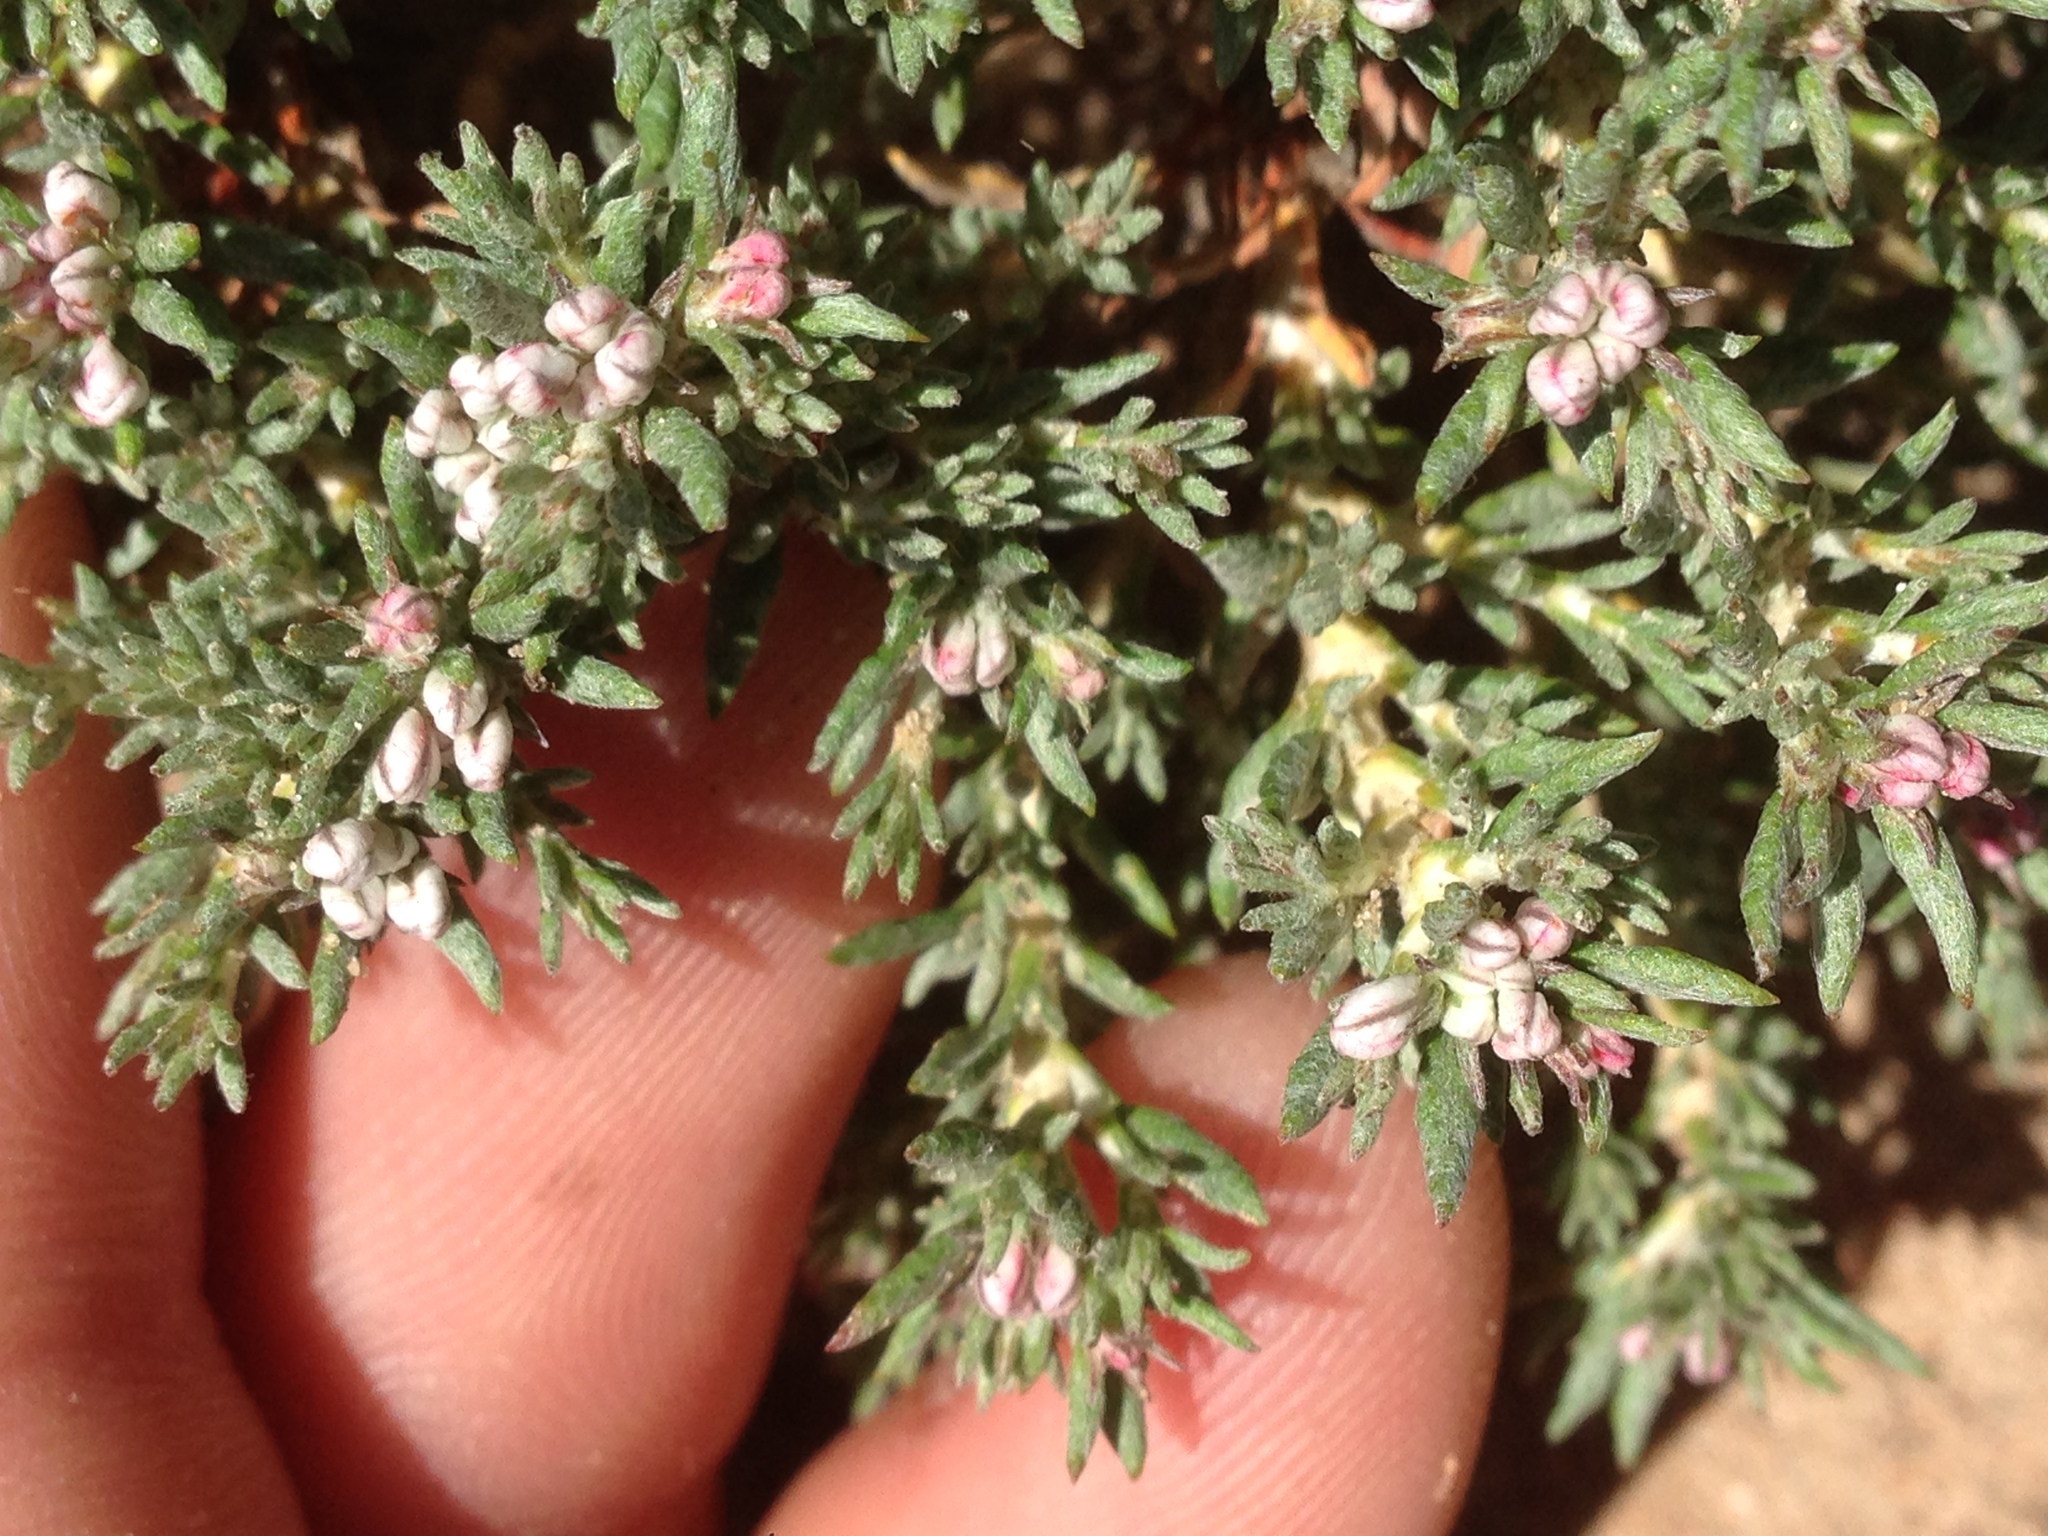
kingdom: Plantae
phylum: Tracheophyta
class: Magnoliopsida
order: Caryophyllales
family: Polygonaceae
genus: Eriogonum
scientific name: Eriogonum fastigiatum
